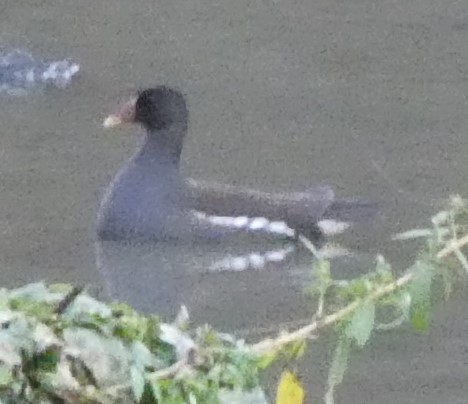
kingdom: Animalia
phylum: Chordata
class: Aves
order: Gruiformes
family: Rallidae
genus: Gallinula
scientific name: Gallinula chloropus
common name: Common moorhen
